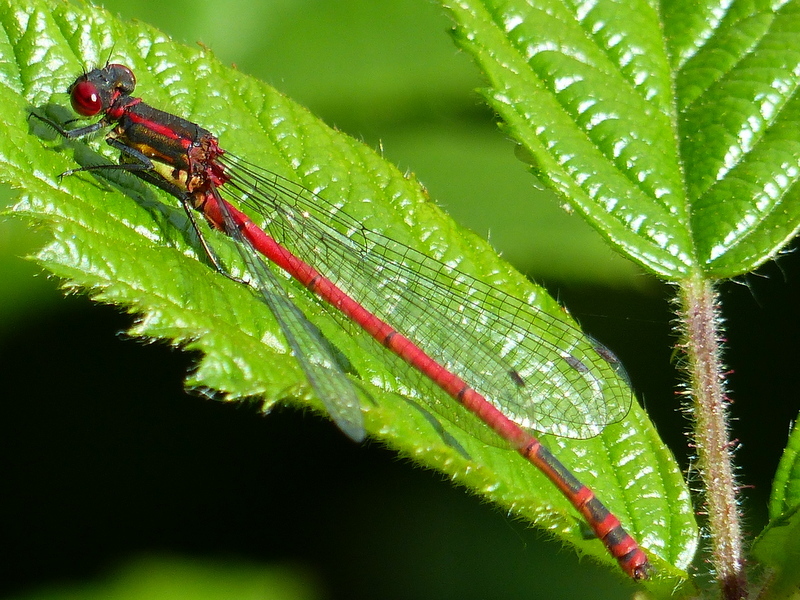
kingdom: Animalia
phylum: Arthropoda
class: Insecta
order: Odonata
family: Coenagrionidae
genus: Pyrrhosoma
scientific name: Pyrrhosoma nymphula
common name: Large red damsel
